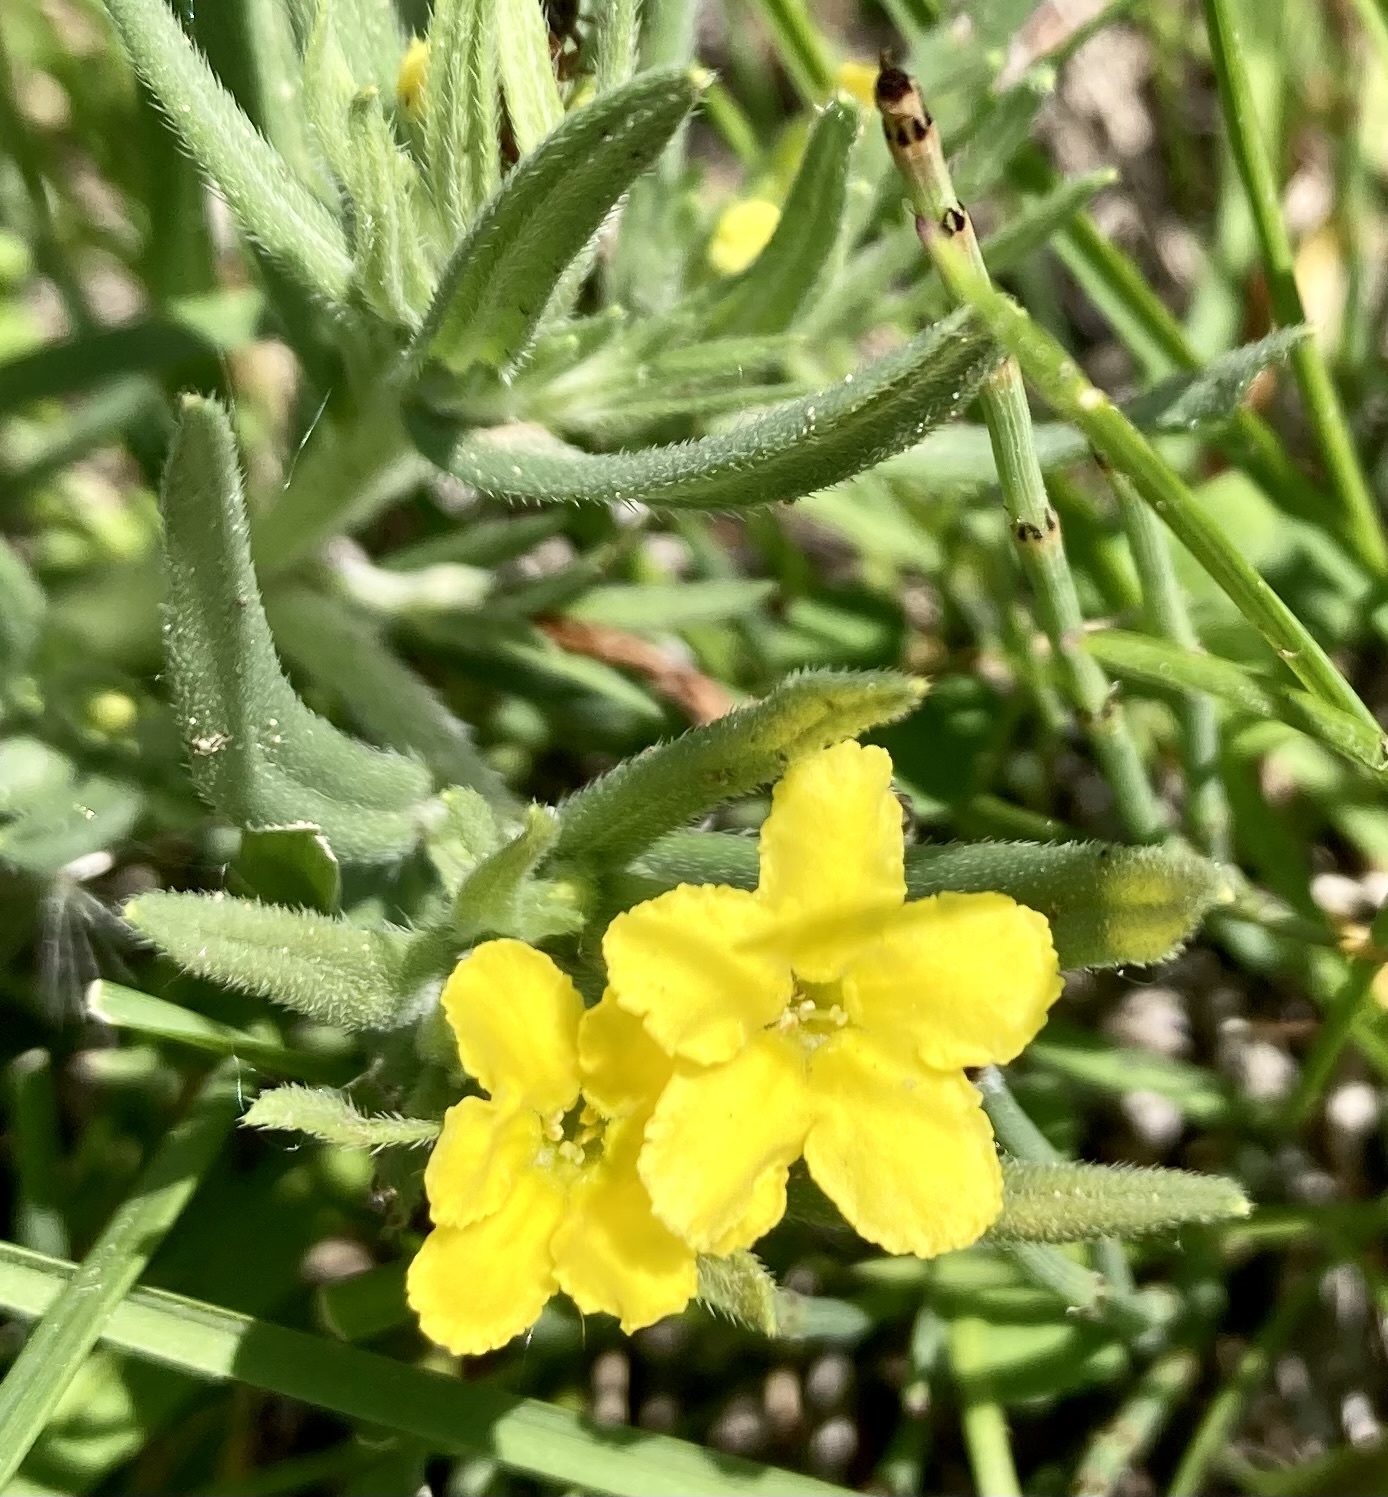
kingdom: Plantae
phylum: Tracheophyta
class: Magnoliopsida
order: Boraginales
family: Boraginaceae
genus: Lithospermum
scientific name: Lithospermum incisum
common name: Fringed gromwell
